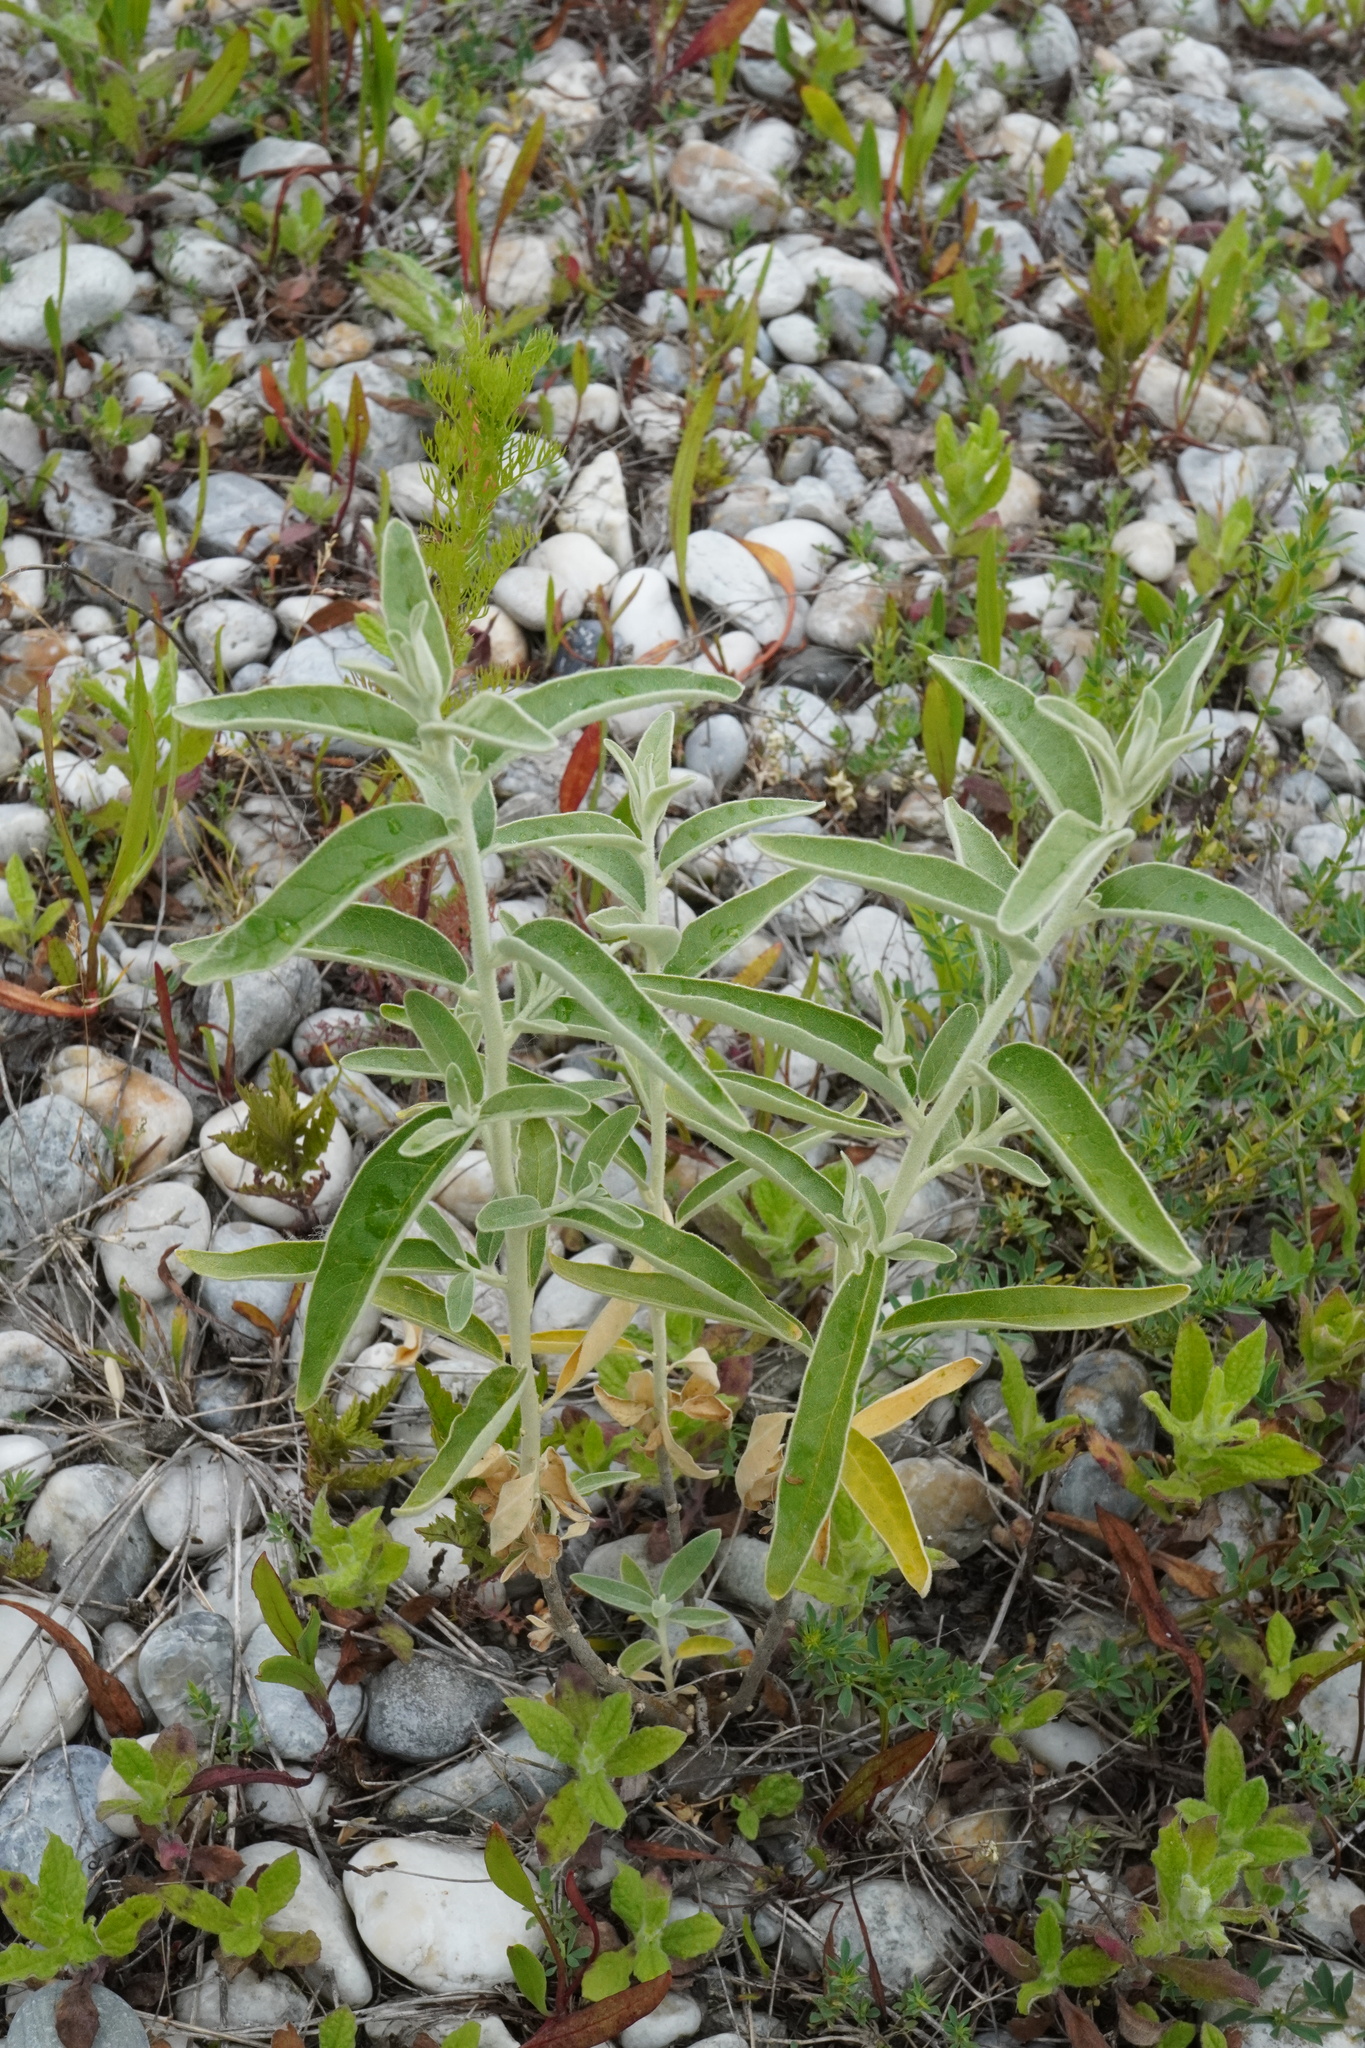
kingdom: Plantae
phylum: Tracheophyta
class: Magnoliopsida
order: Rosales
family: Elaeagnaceae
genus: Elaeagnus
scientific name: Elaeagnus angustifolia
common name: Russian olive
